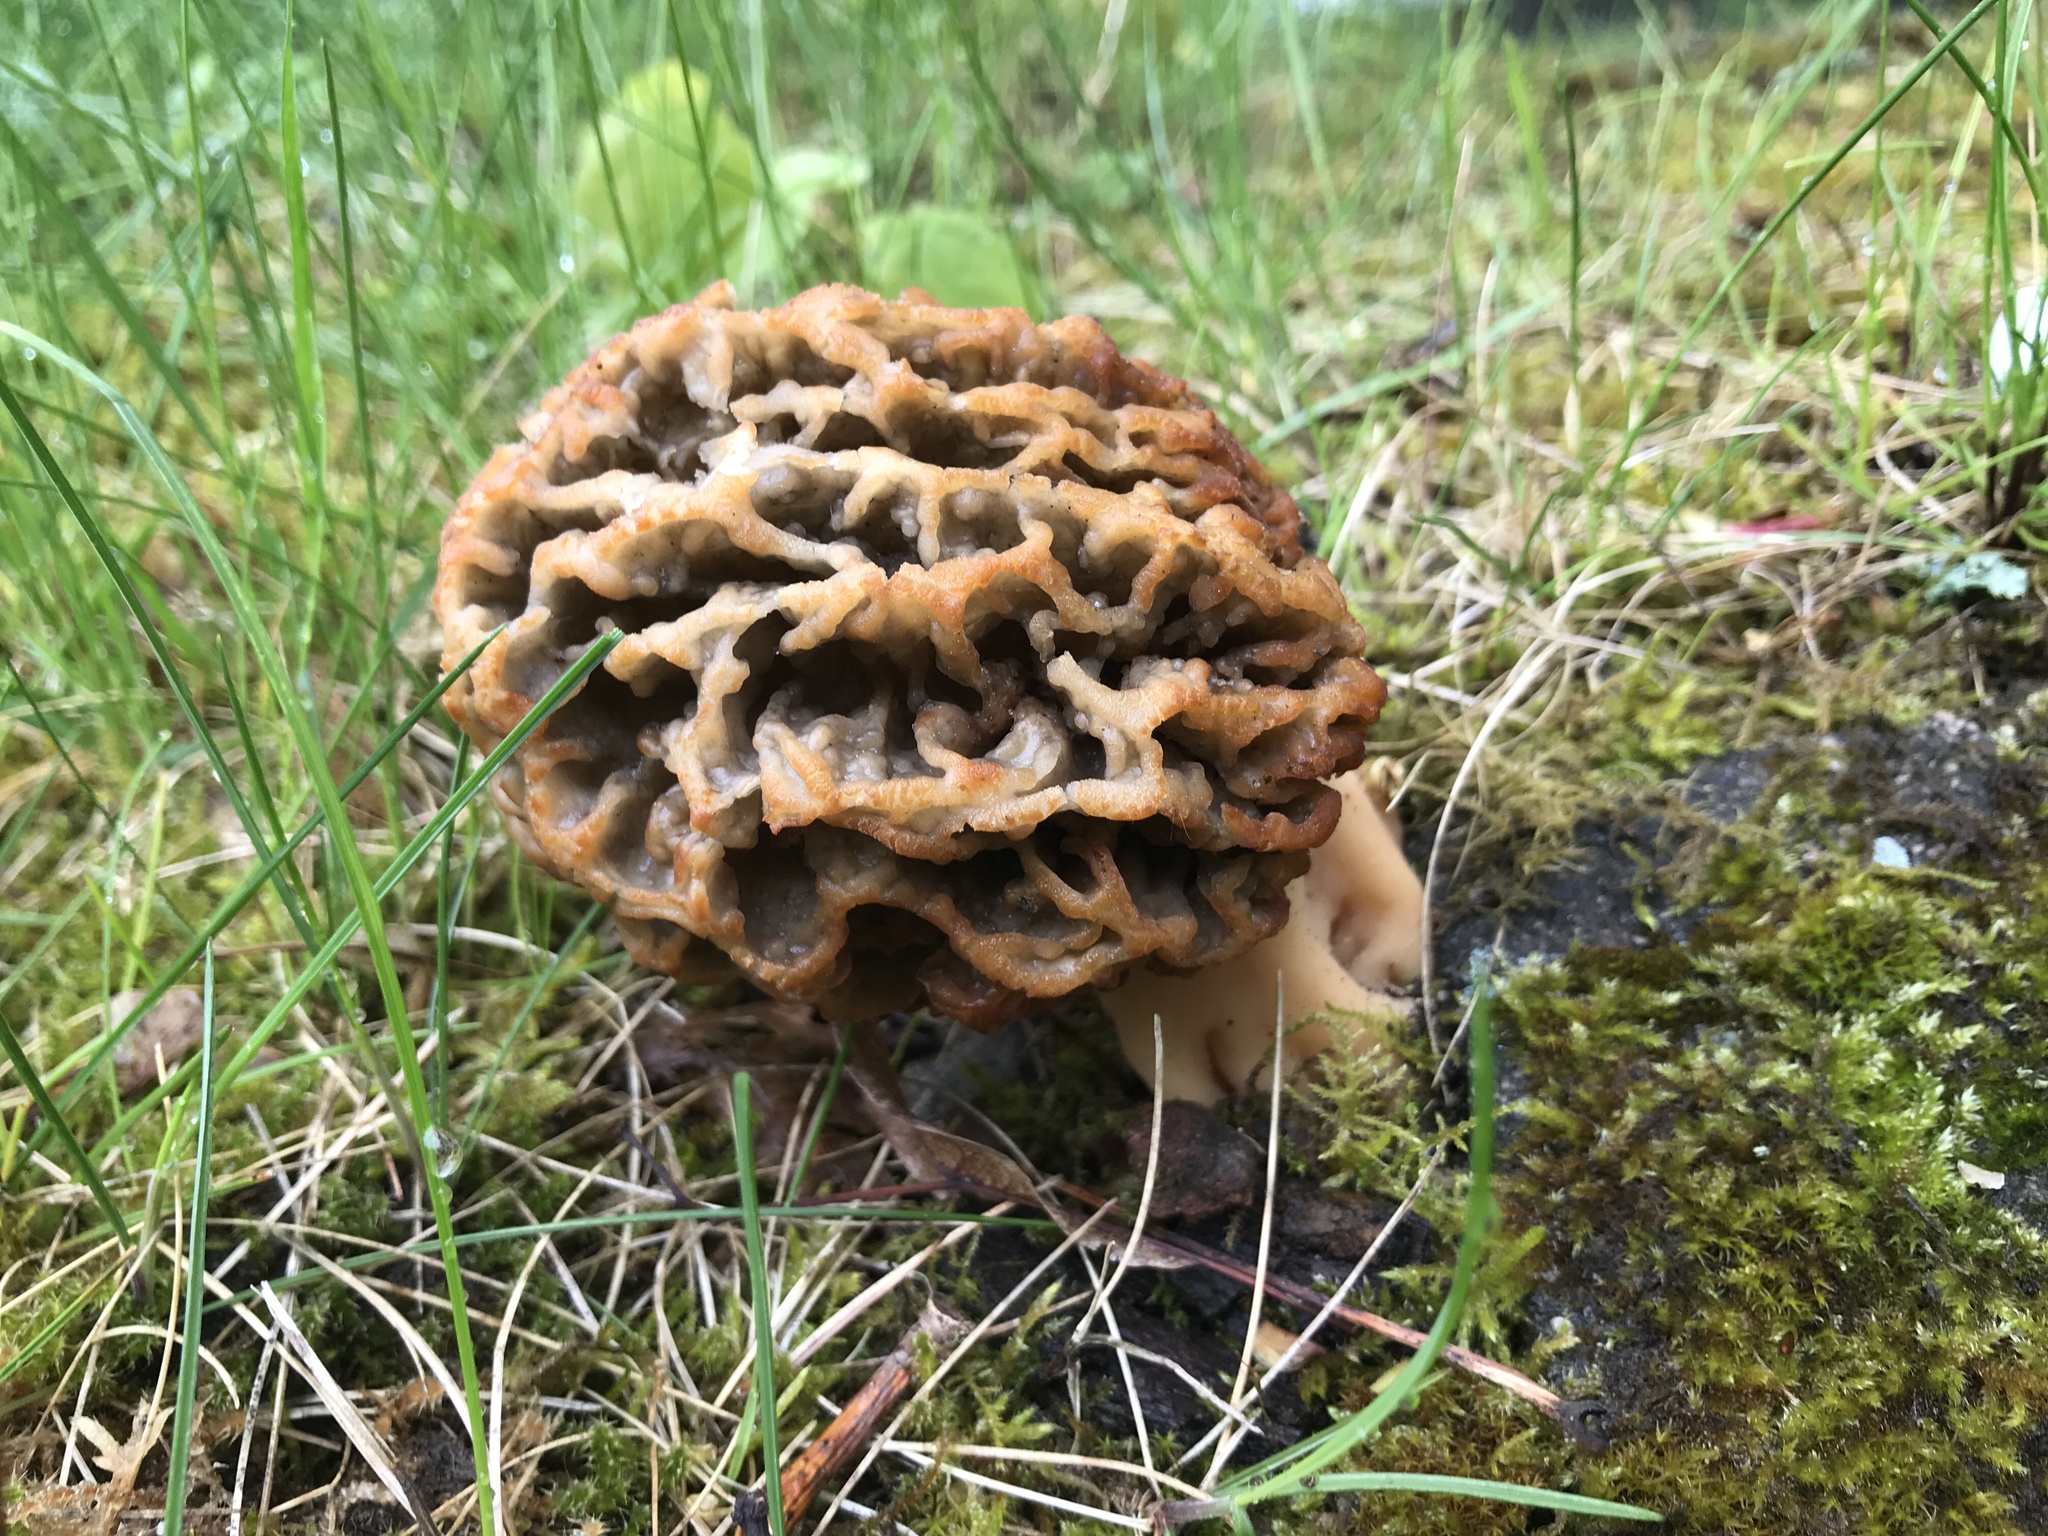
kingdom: Fungi
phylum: Ascomycota
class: Pezizomycetes
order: Pezizales
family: Morchellaceae
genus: Morchella
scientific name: Morchella esculenta
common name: Morel
